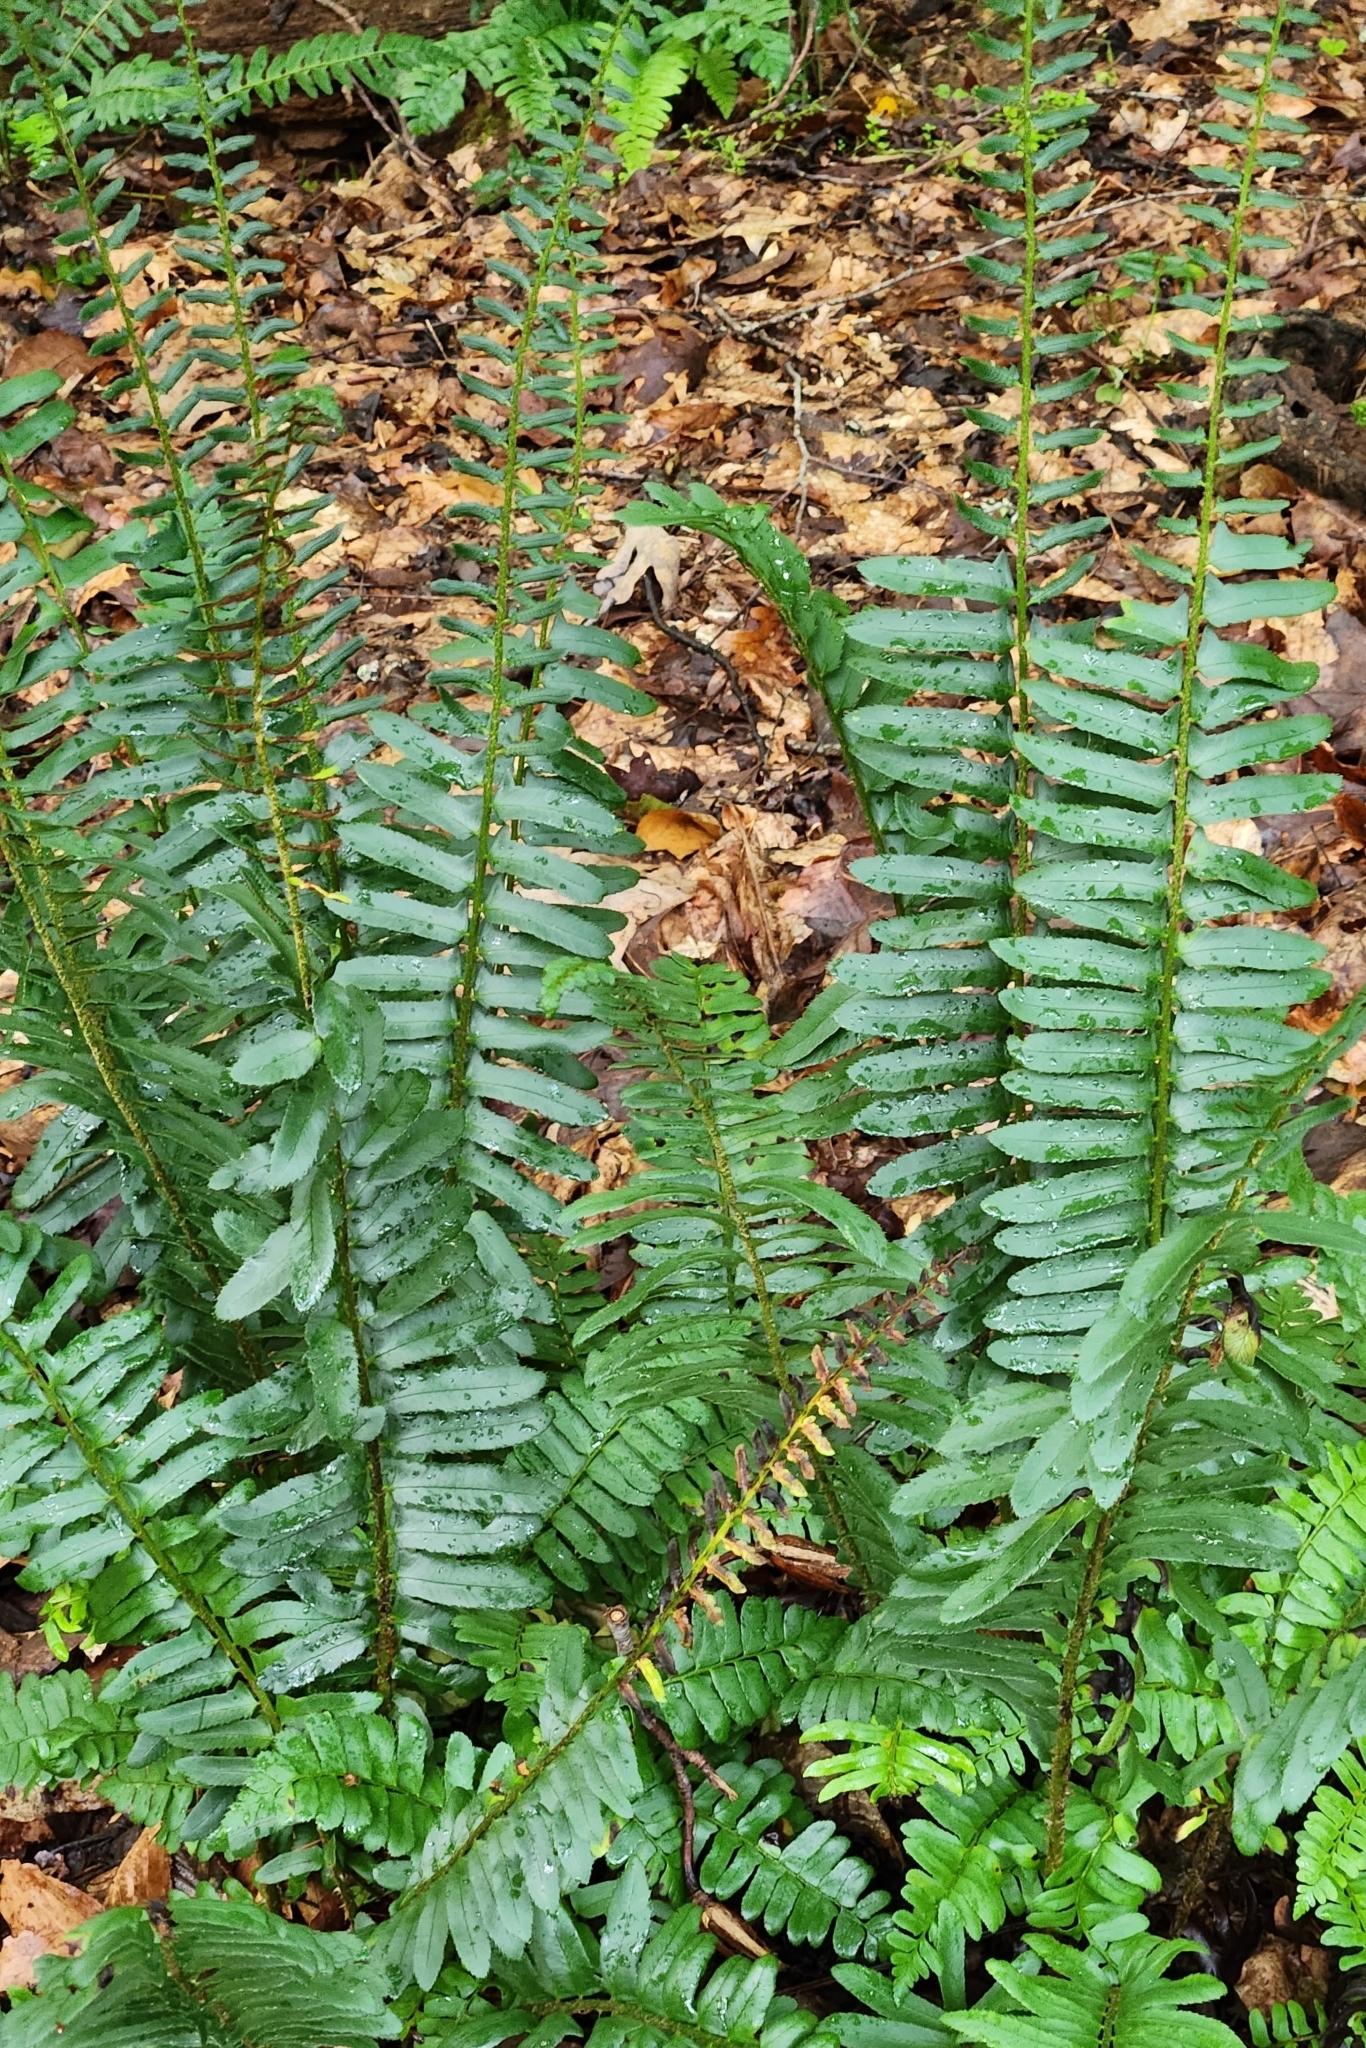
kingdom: Plantae
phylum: Tracheophyta
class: Polypodiopsida
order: Polypodiales
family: Dryopteridaceae
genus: Polystichum
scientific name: Polystichum acrostichoides
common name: Christmas fern
